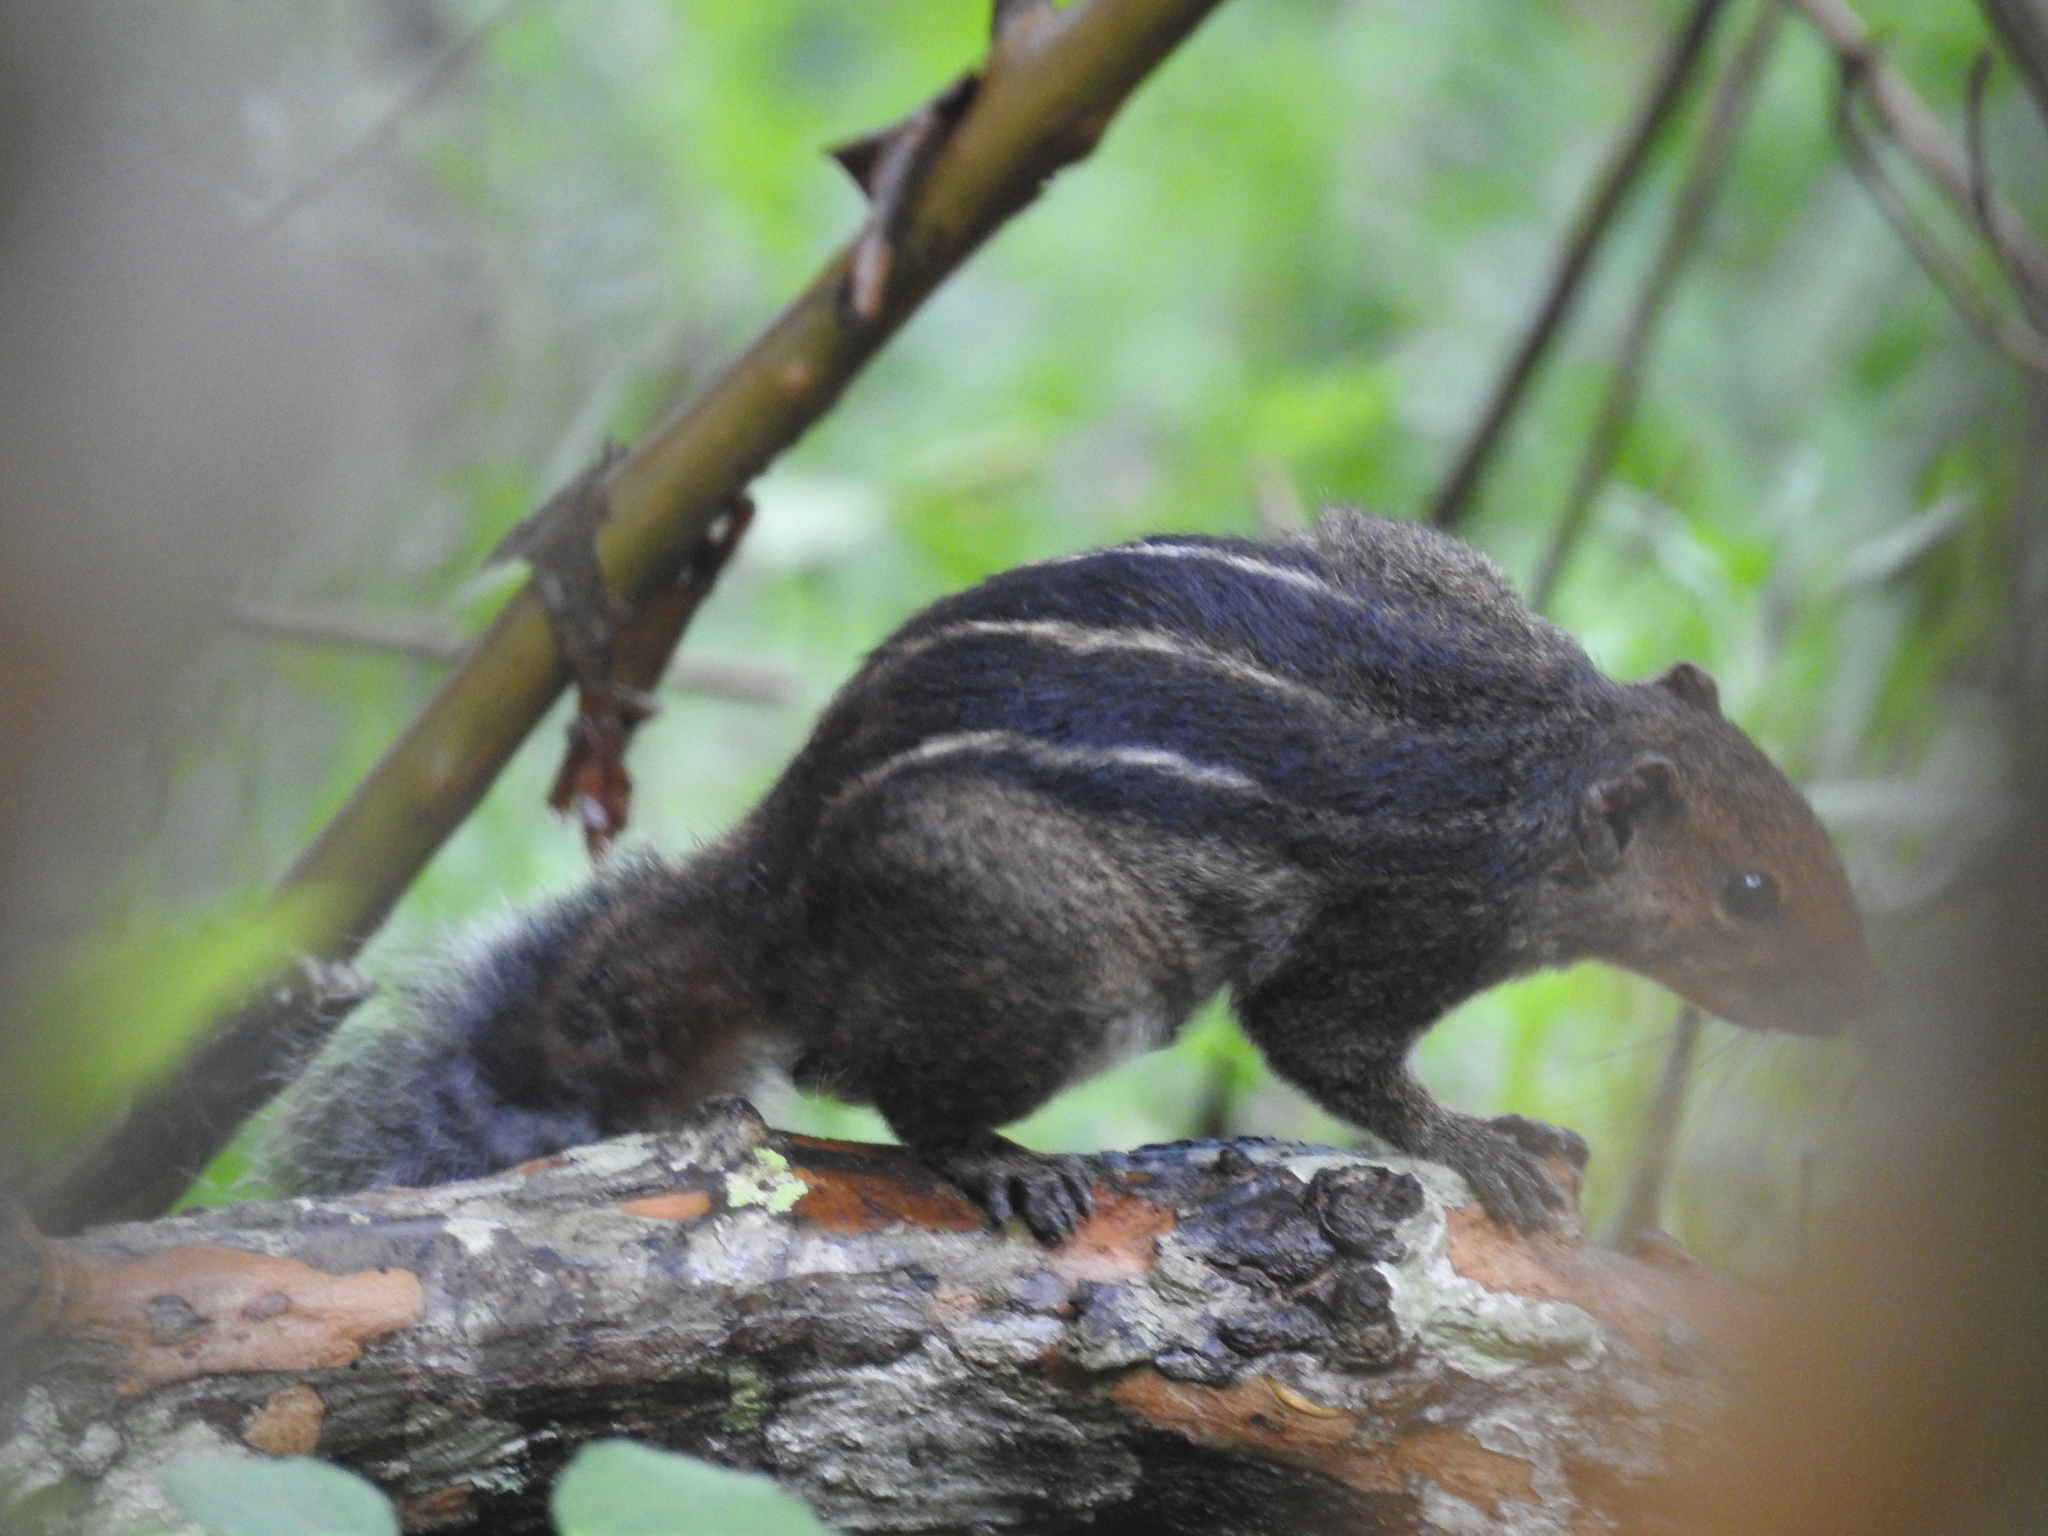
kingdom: Animalia
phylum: Chordata
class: Mammalia
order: Rodentia
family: Sciuridae
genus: Funambulus
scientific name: Funambulus tristriatus
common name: Jungle palm squirrel
